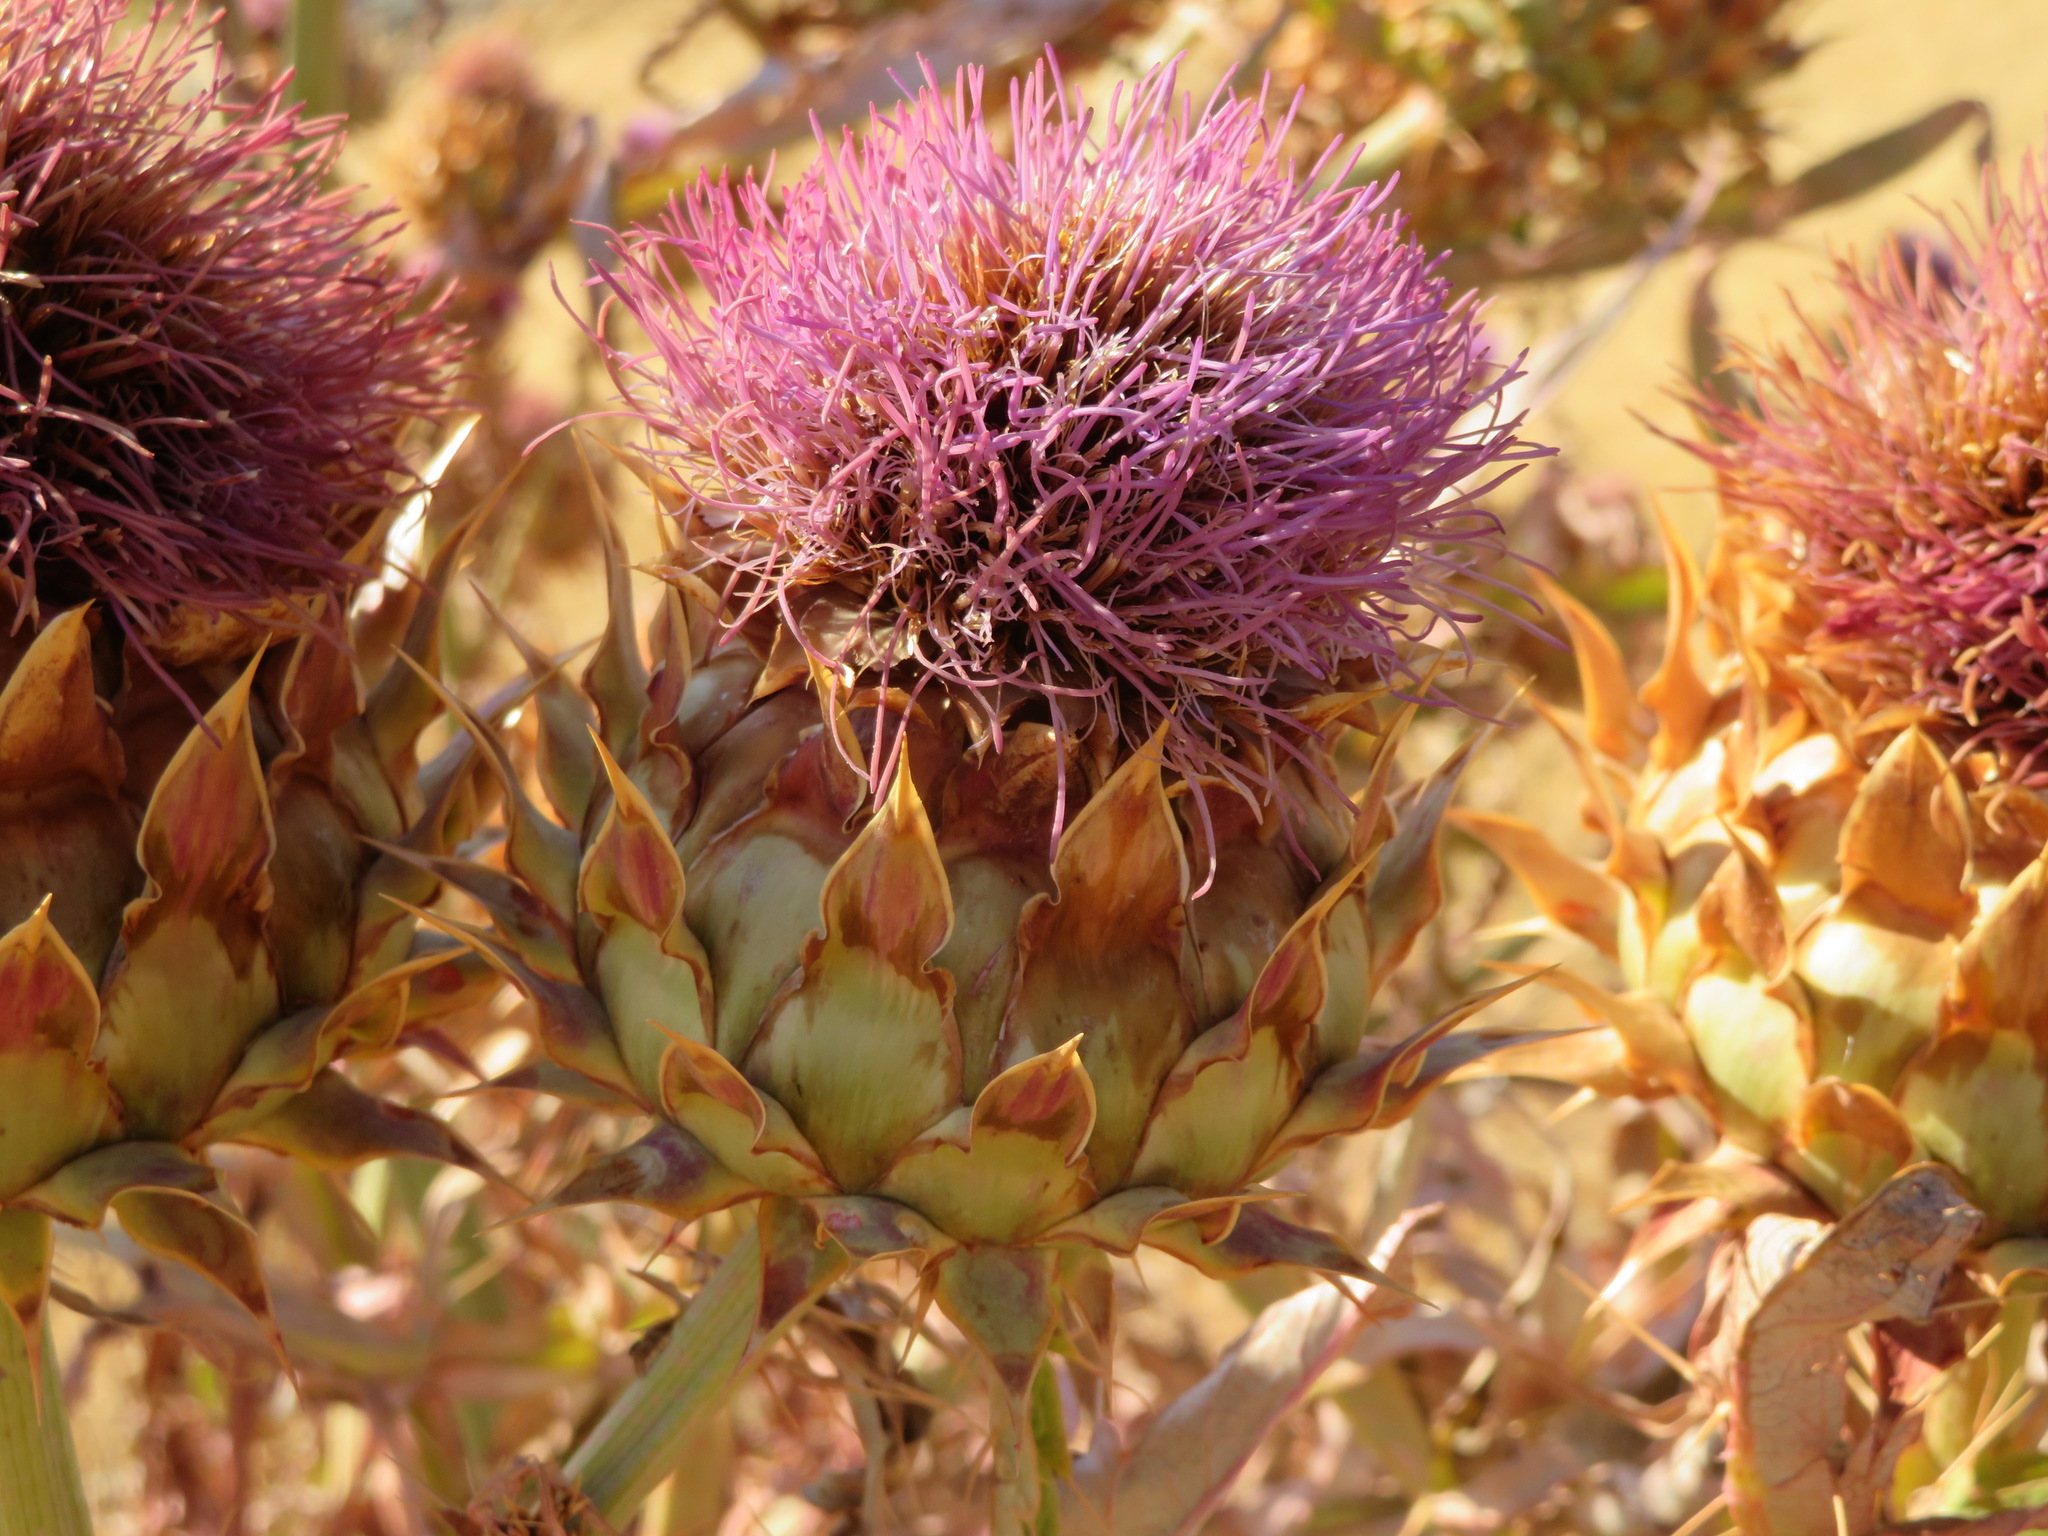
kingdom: Plantae
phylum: Tracheophyta
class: Magnoliopsida
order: Asterales
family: Asteraceae
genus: Cynara
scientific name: Cynara cardunculus
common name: Globe artichoke
